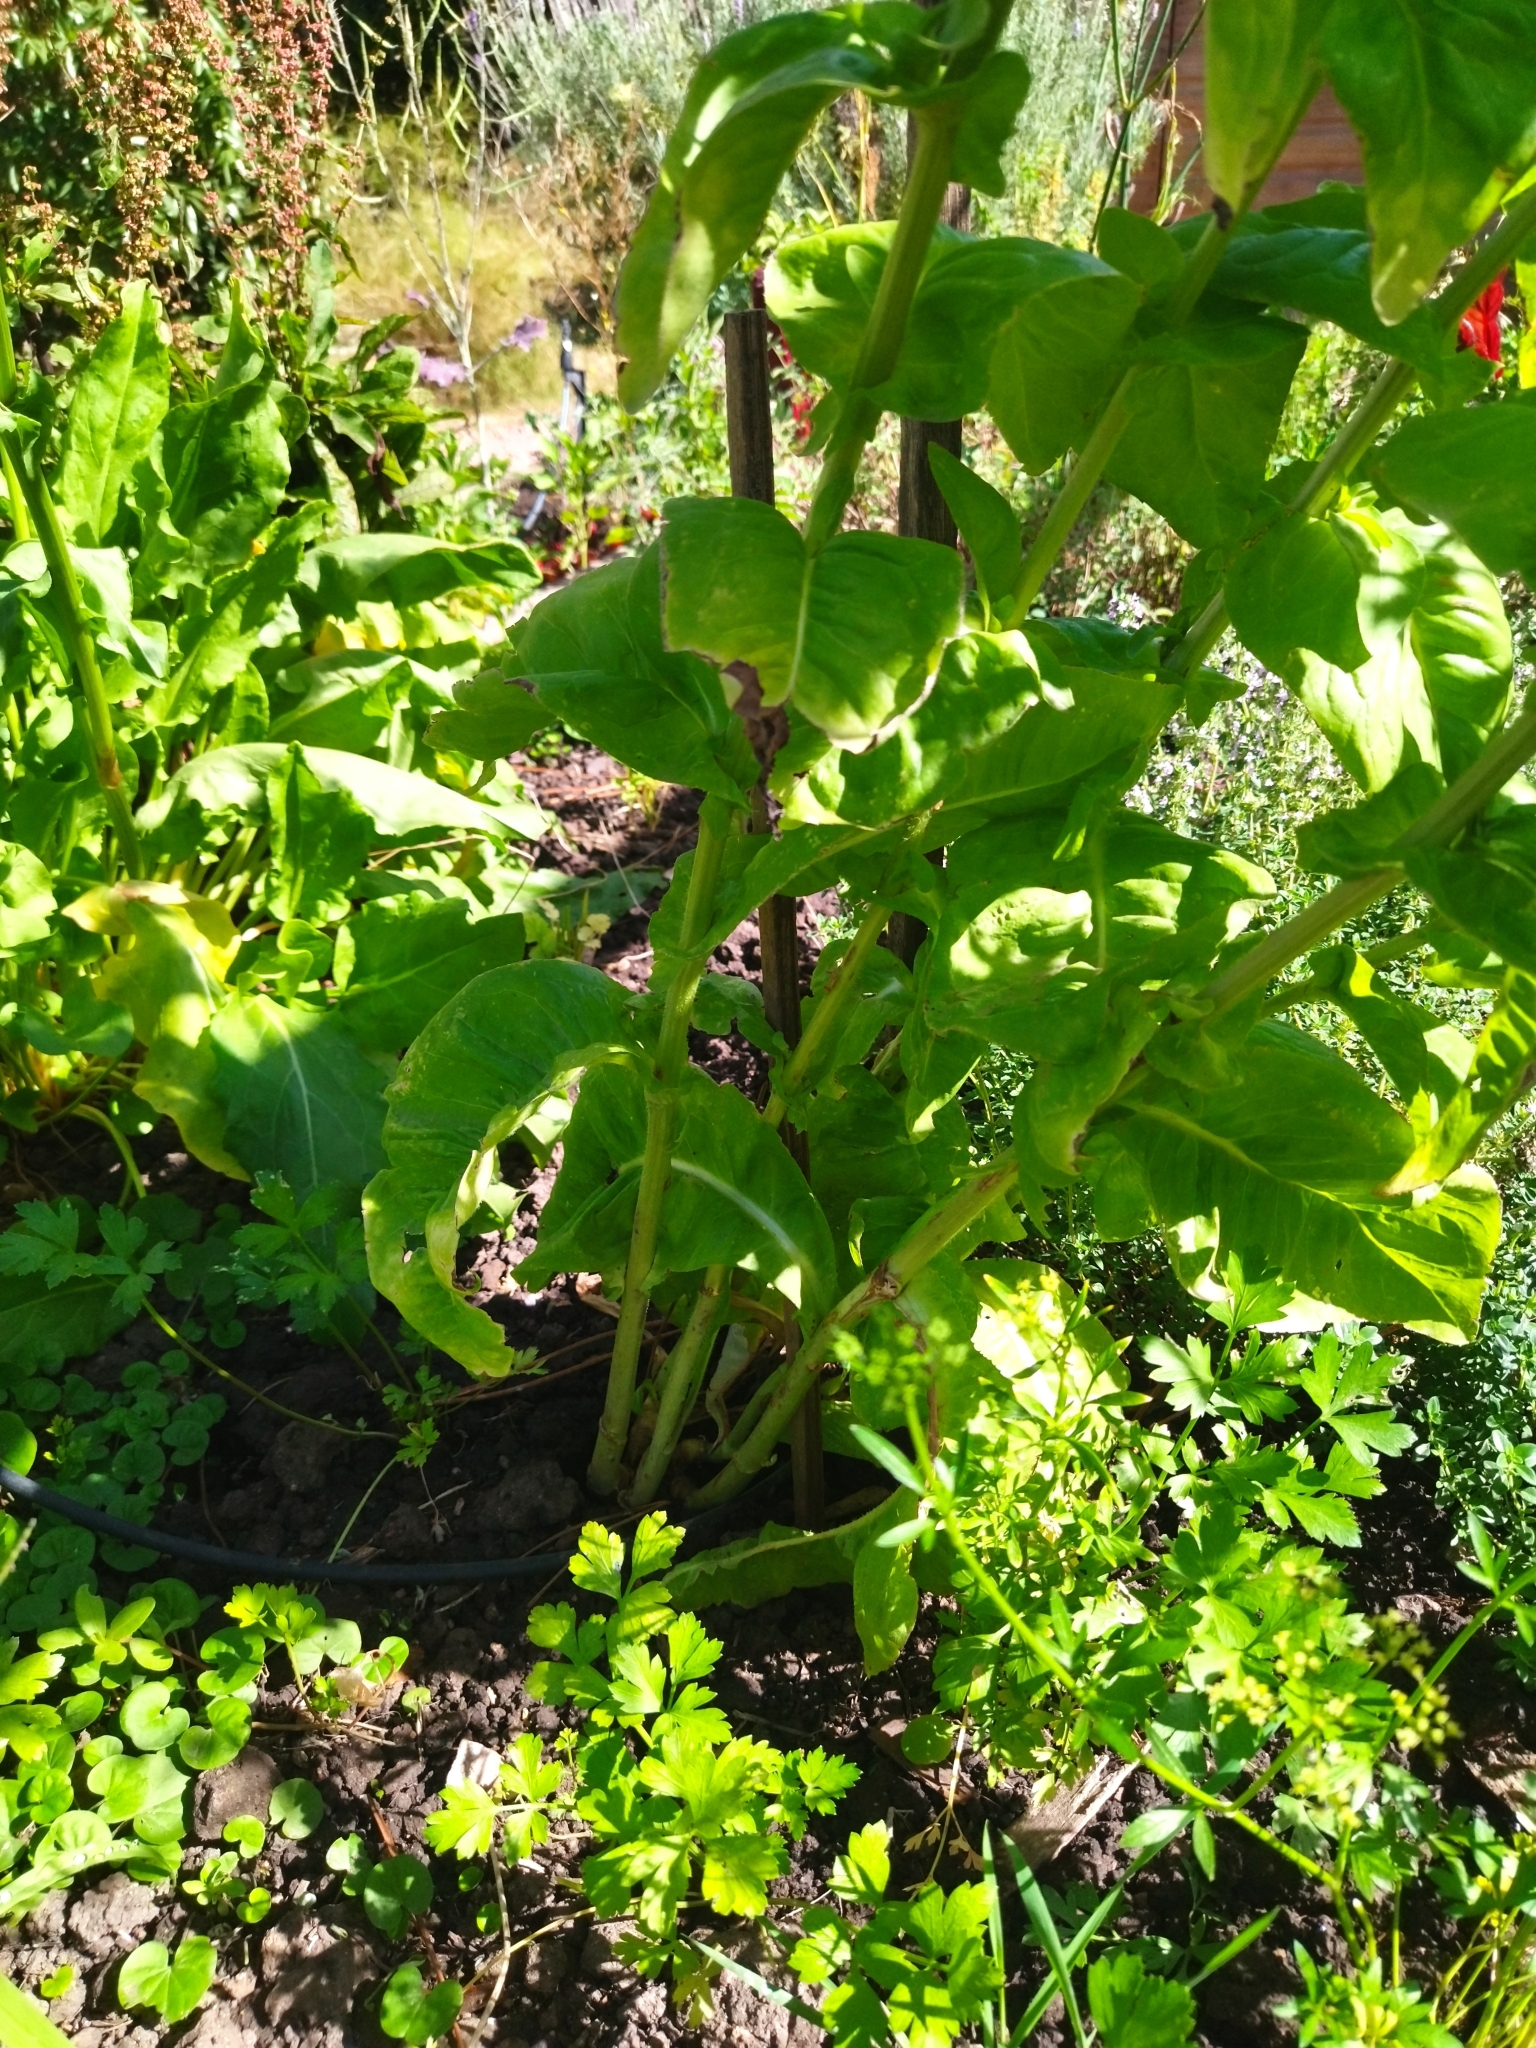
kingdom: Plantae
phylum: Tracheophyta
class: Magnoliopsida
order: Asterales
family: Asteraceae
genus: Cichorium
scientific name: Cichorium intybus
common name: Chicory
